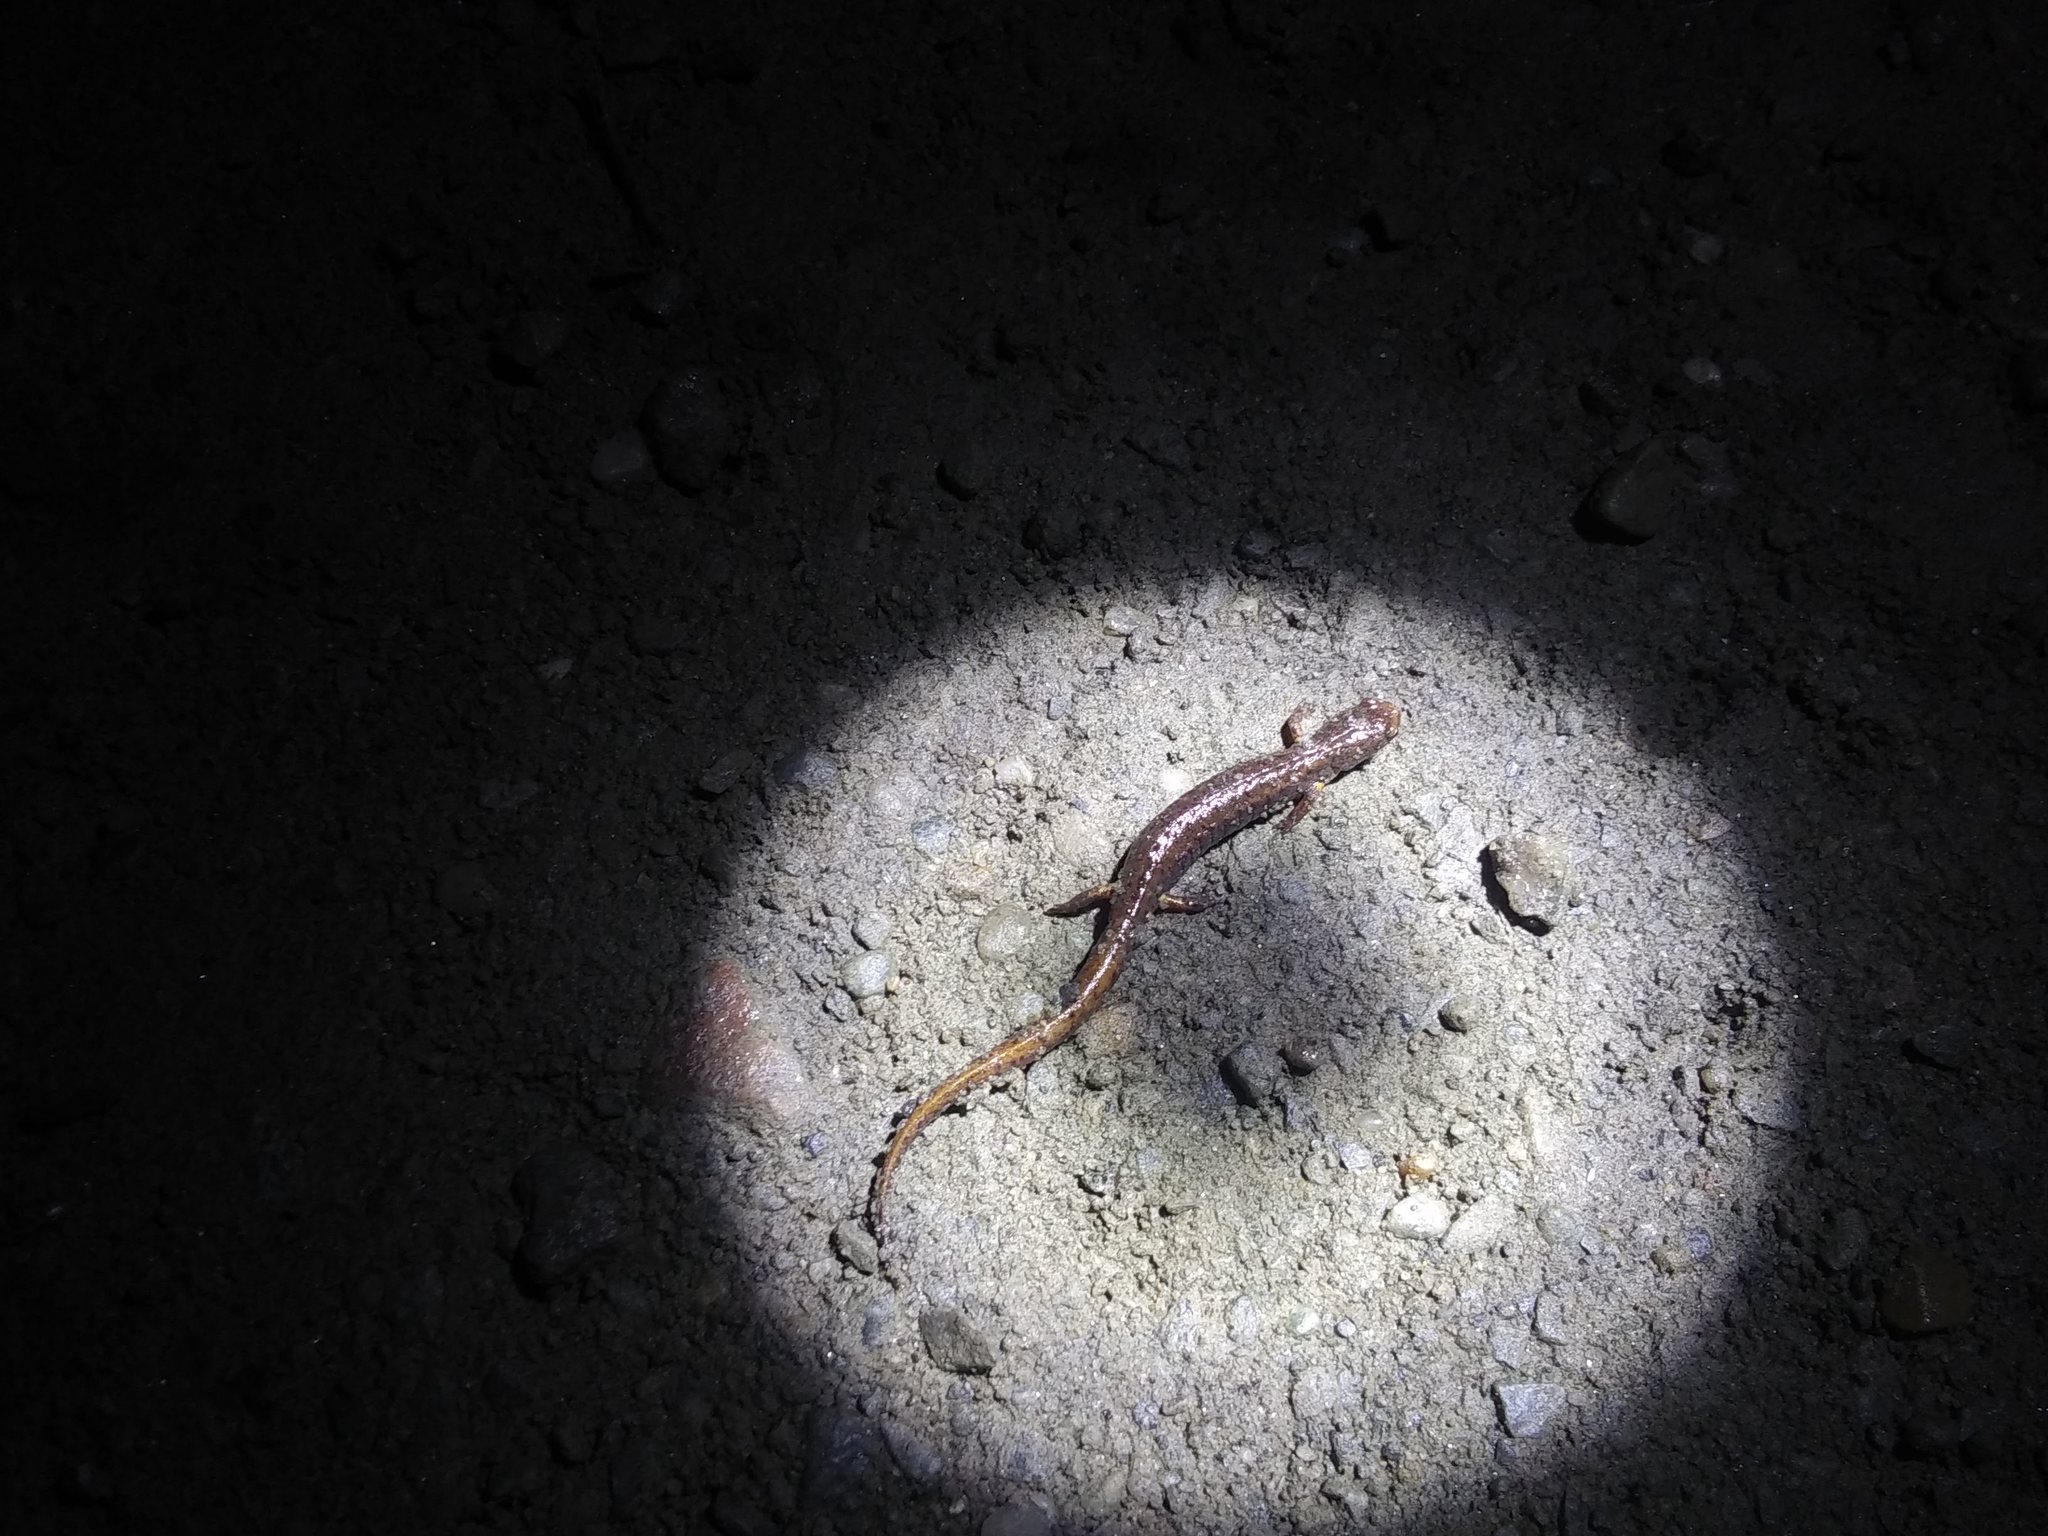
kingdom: Animalia
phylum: Chordata
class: Amphibia
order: Caudata
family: Plethodontidae
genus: Hemidactylium
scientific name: Hemidactylium scutatum
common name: Four-toed salamander
